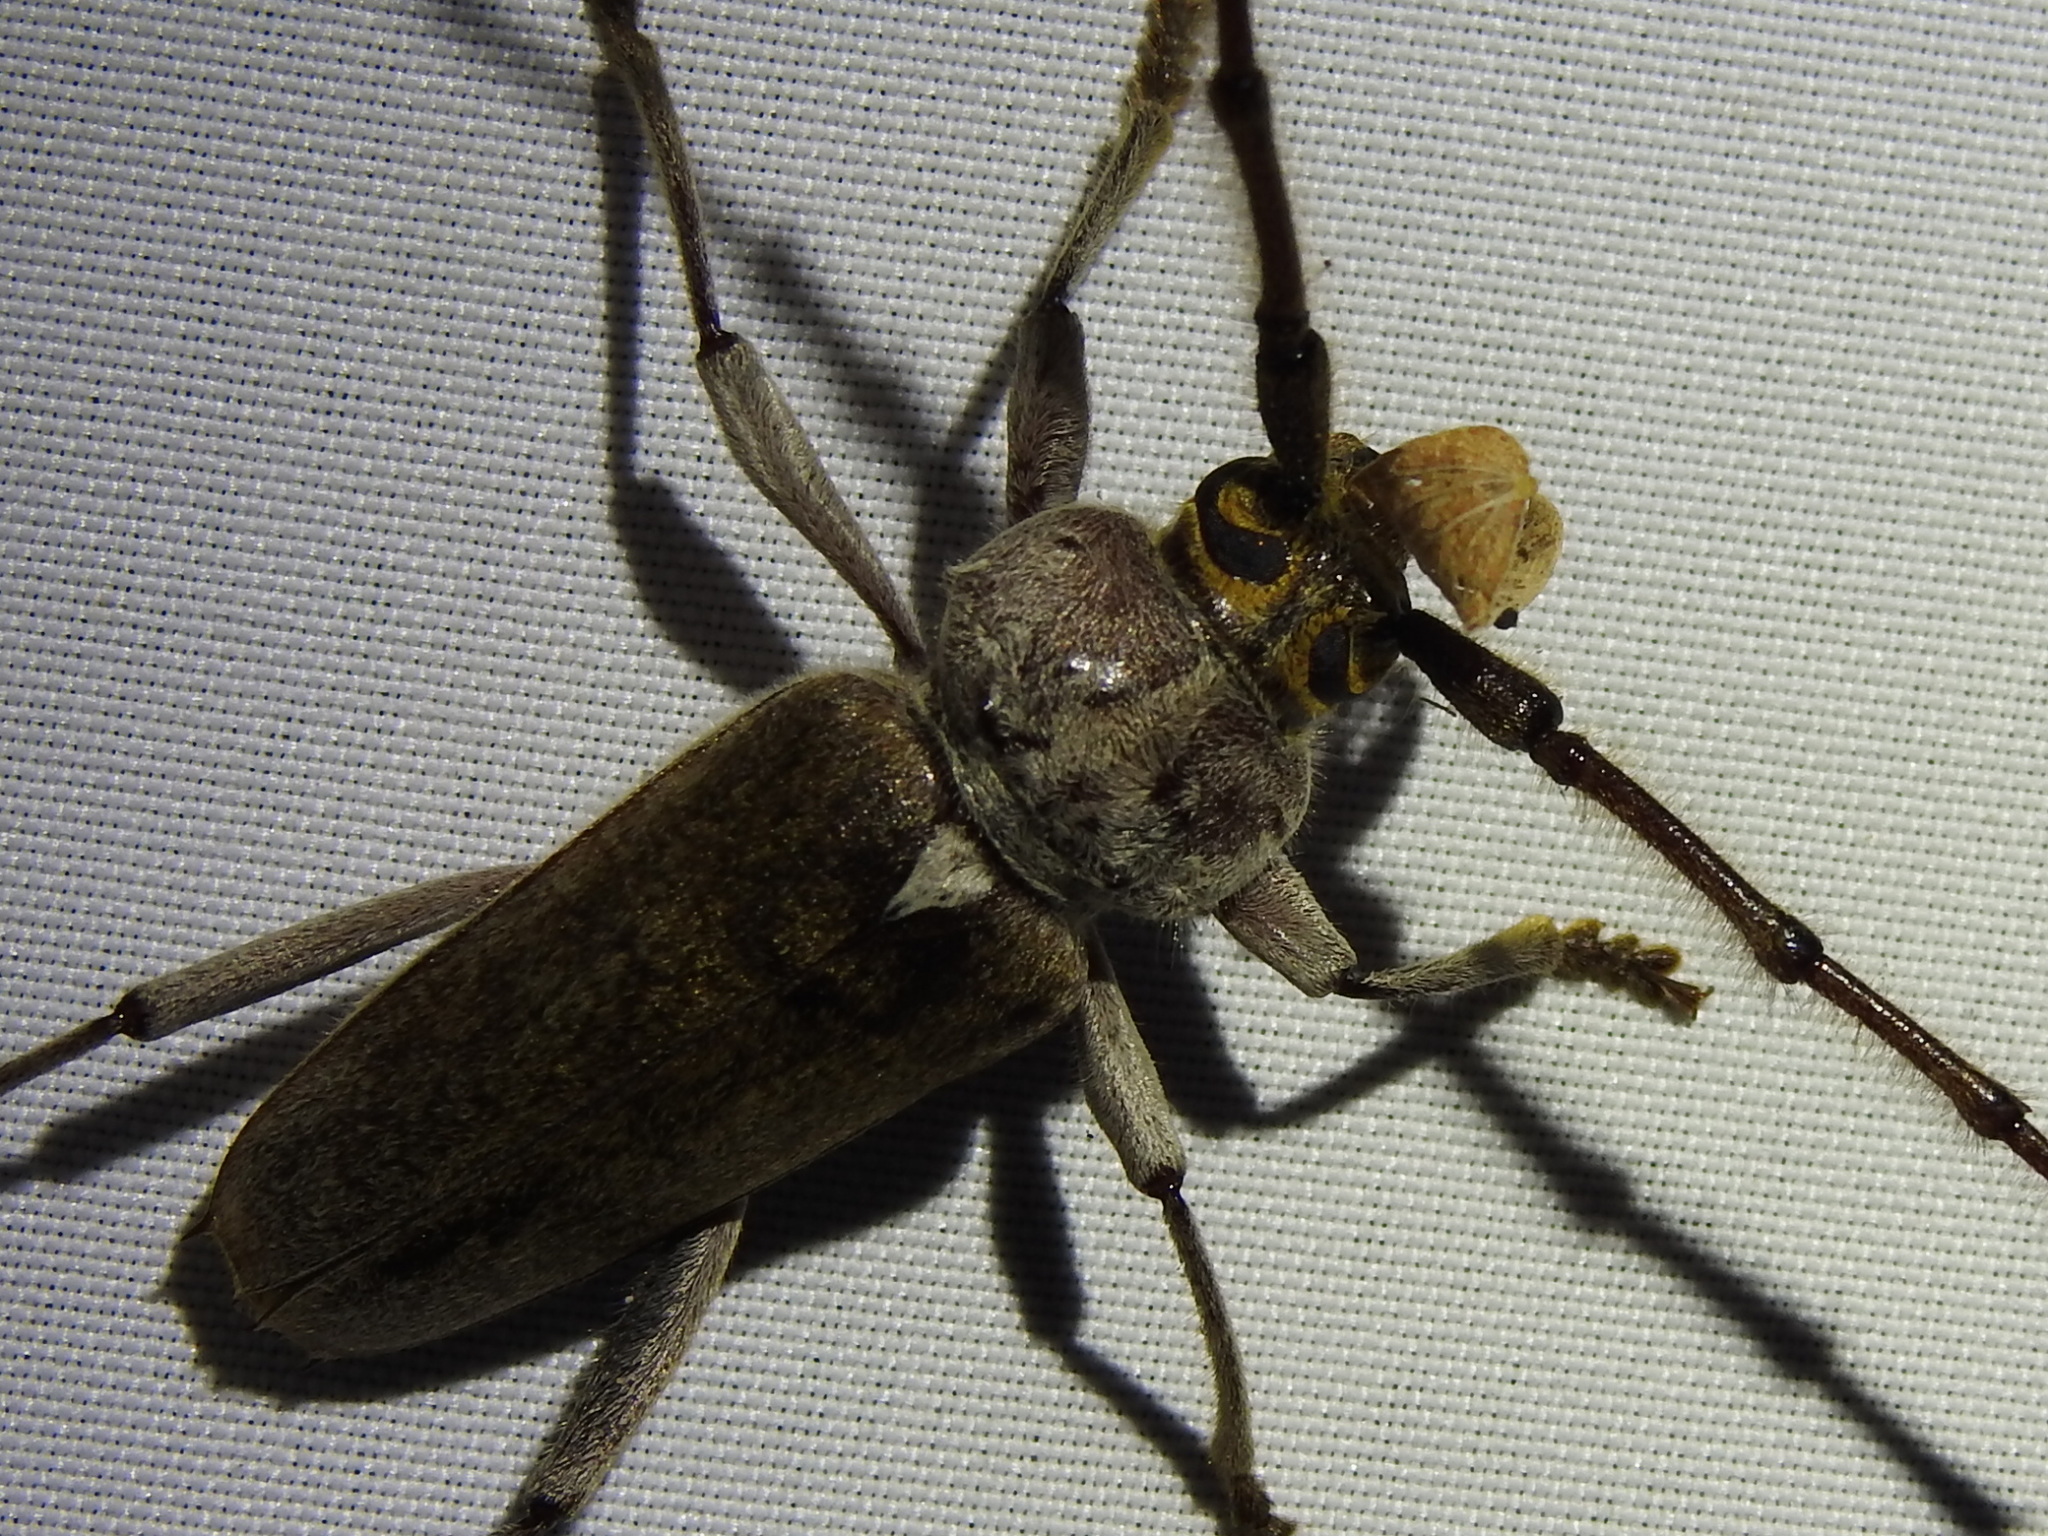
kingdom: Animalia
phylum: Arthropoda
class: Insecta
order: Coleoptera
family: Cerambycidae
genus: Gnaphalodes
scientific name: Gnaphalodes trachyderoides
